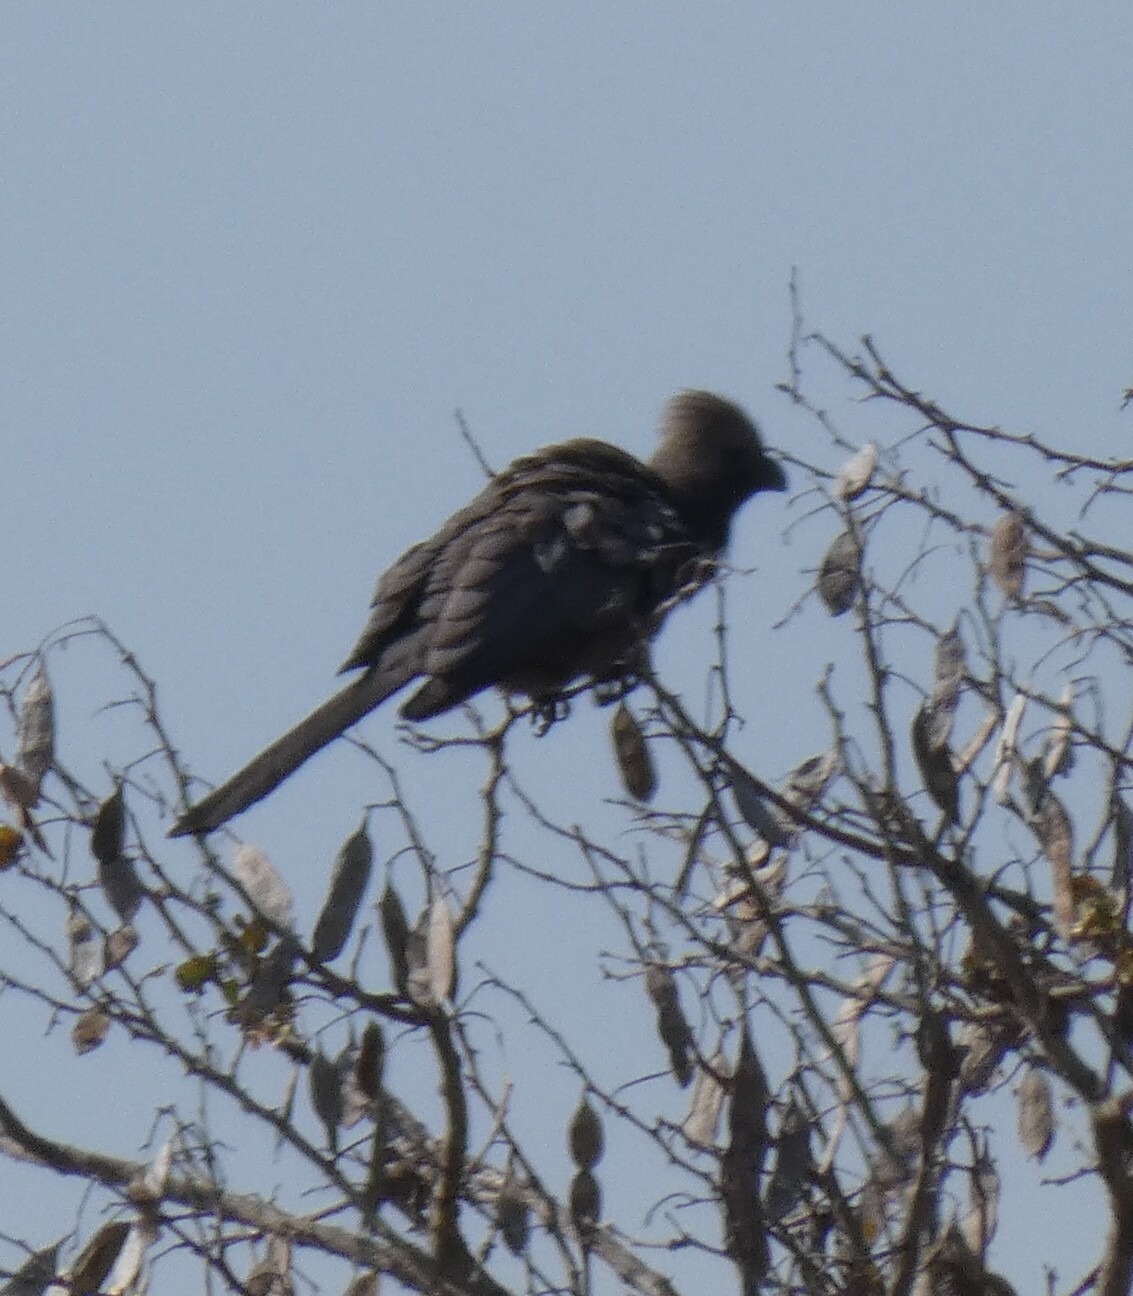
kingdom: Animalia
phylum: Chordata
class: Aves
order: Musophagiformes
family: Musophagidae
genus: Corythaixoides
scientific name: Corythaixoides concolor
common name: Grey go-away-bird
